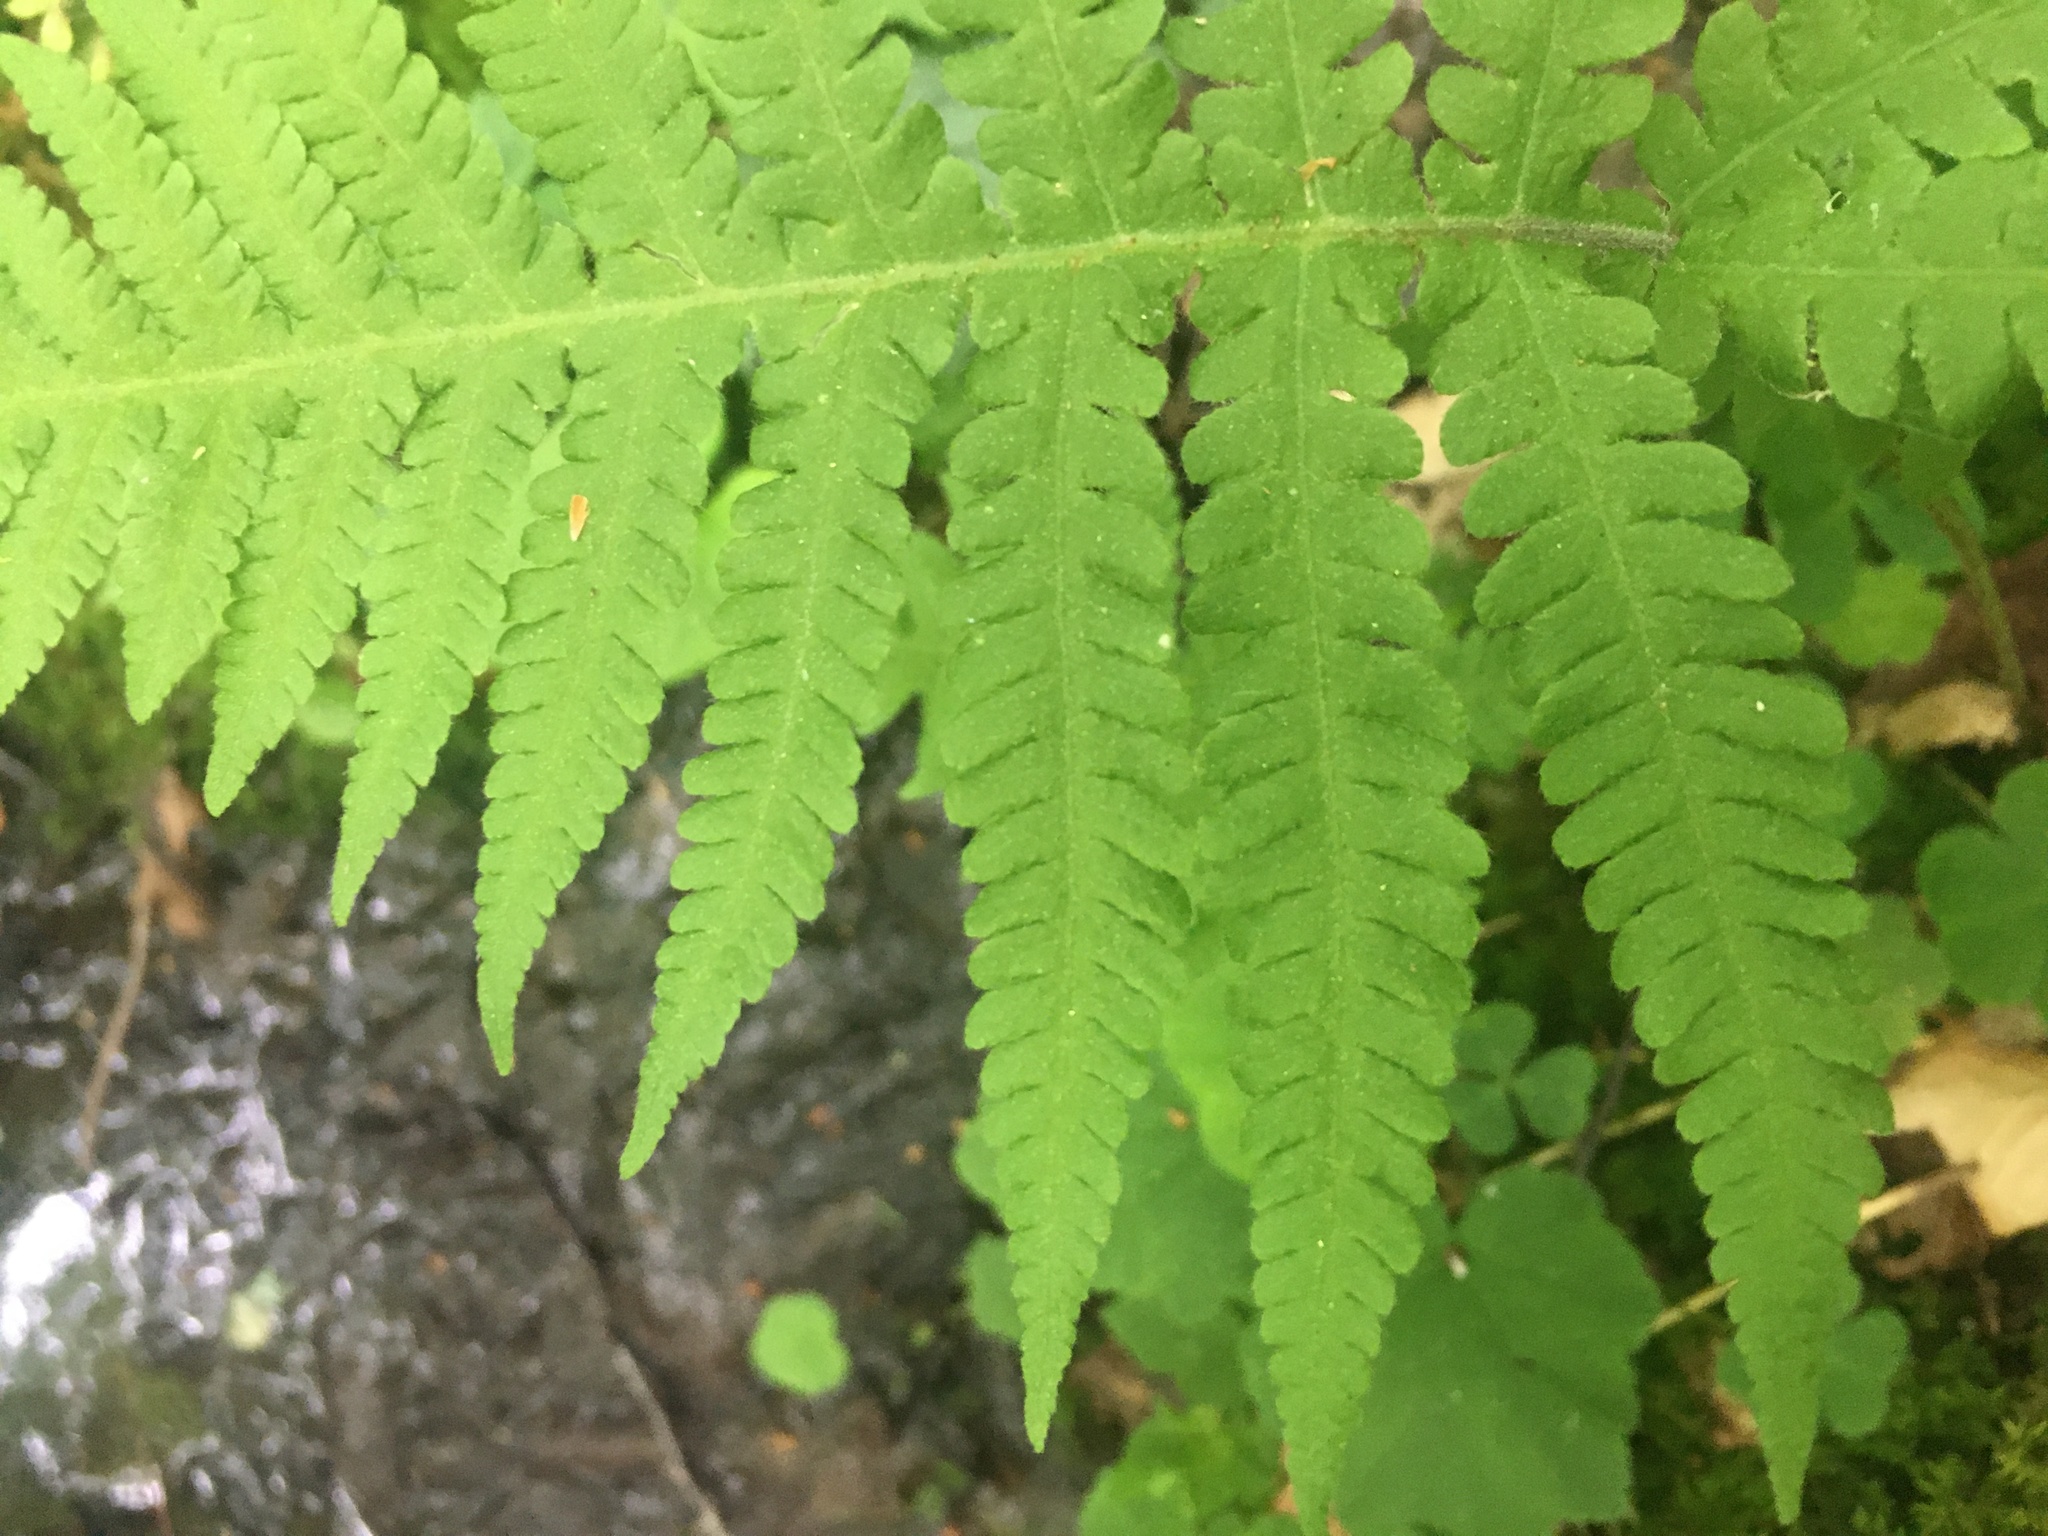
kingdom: Plantae
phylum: Tracheophyta
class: Polypodiopsida
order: Polypodiales
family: Thelypteridaceae
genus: Phegopteris
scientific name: Phegopteris connectilis
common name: Beech fern
